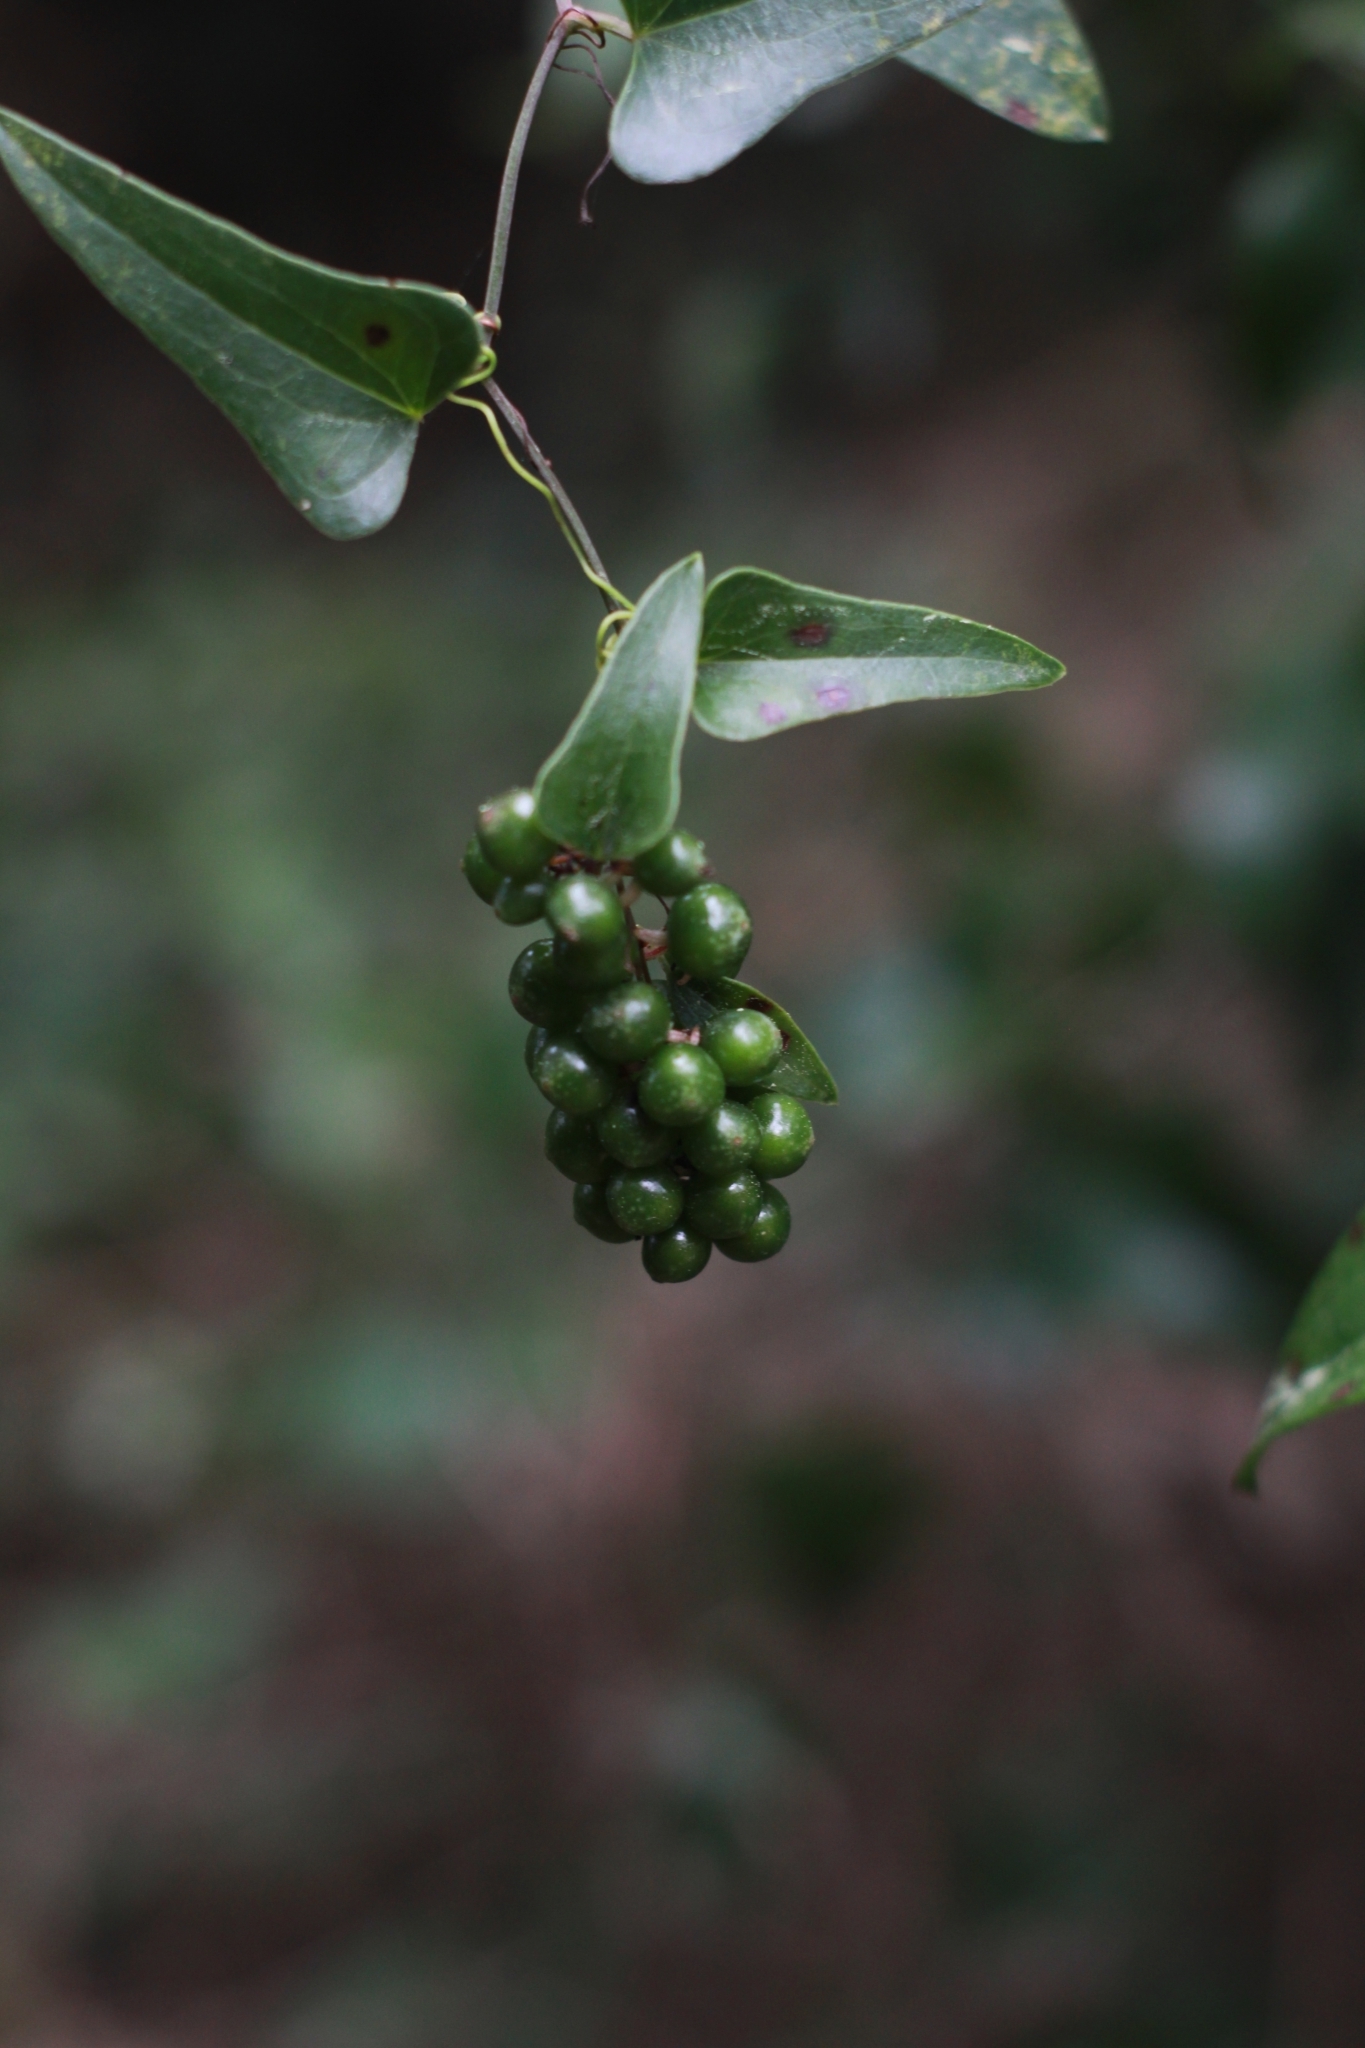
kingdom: Plantae
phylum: Tracheophyta
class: Liliopsida
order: Liliales
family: Smilacaceae
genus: Smilax
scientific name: Smilax aspera
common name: Common smilax
